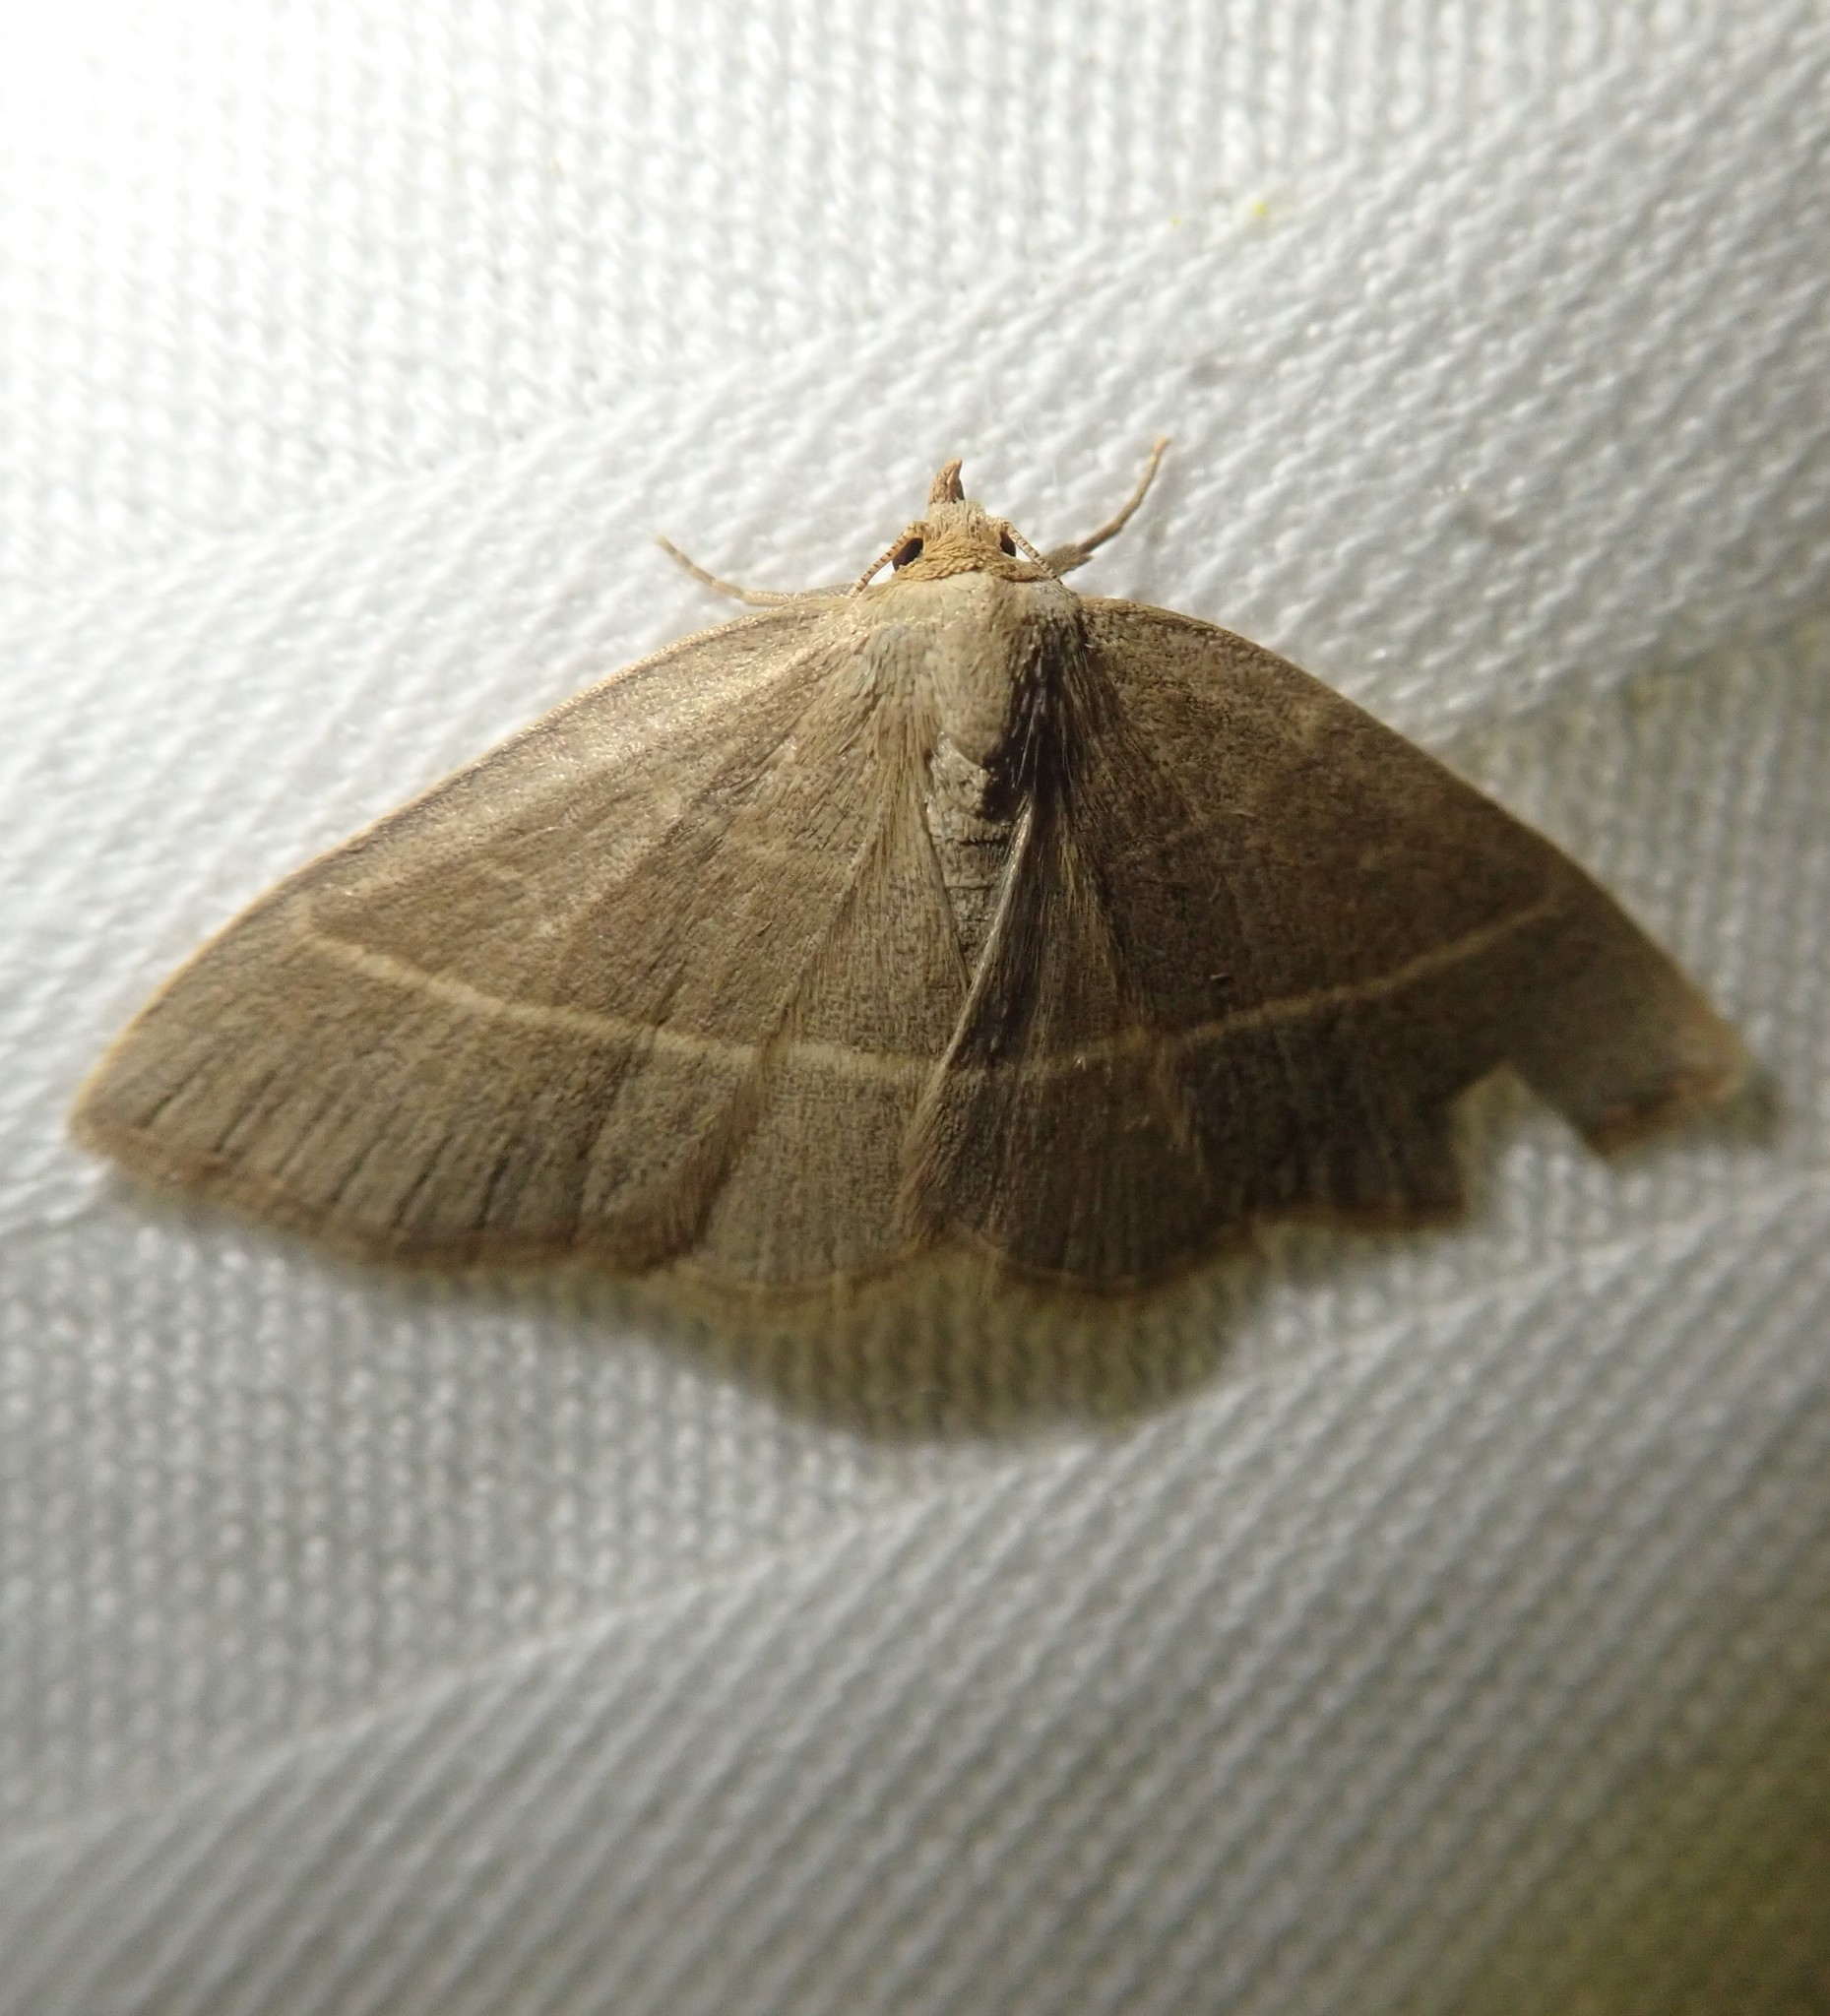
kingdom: Animalia
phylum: Arthropoda
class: Insecta
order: Lepidoptera
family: Erebidae
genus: Trisateles
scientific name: Trisateles emortualis
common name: Olive crescent
